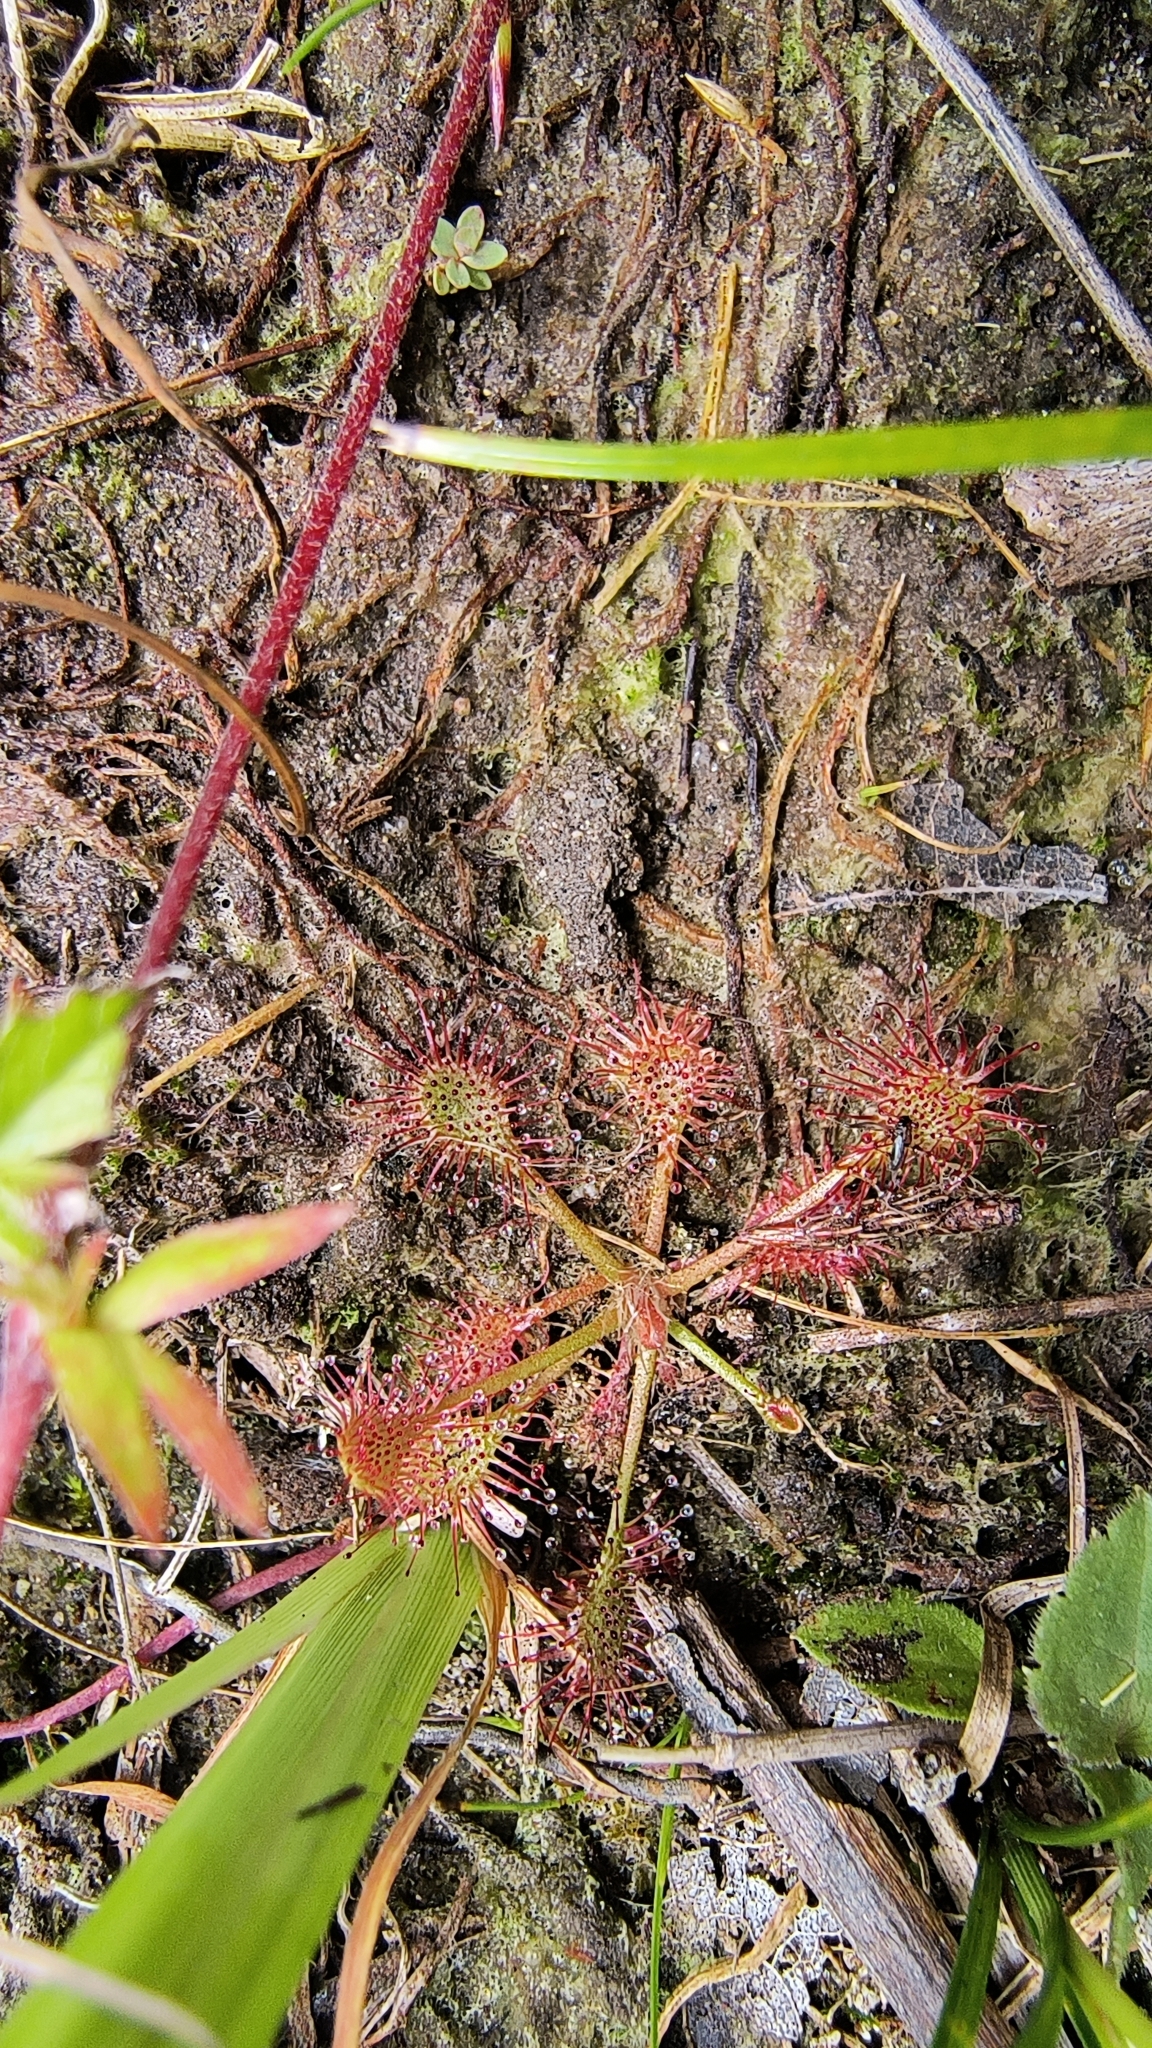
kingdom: Plantae
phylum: Tracheophyta
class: Magnoliopsida
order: Caryophyllales
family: Droseraceae
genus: Drosera
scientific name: Drosera rotundifolia
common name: Round-leaved sundew
